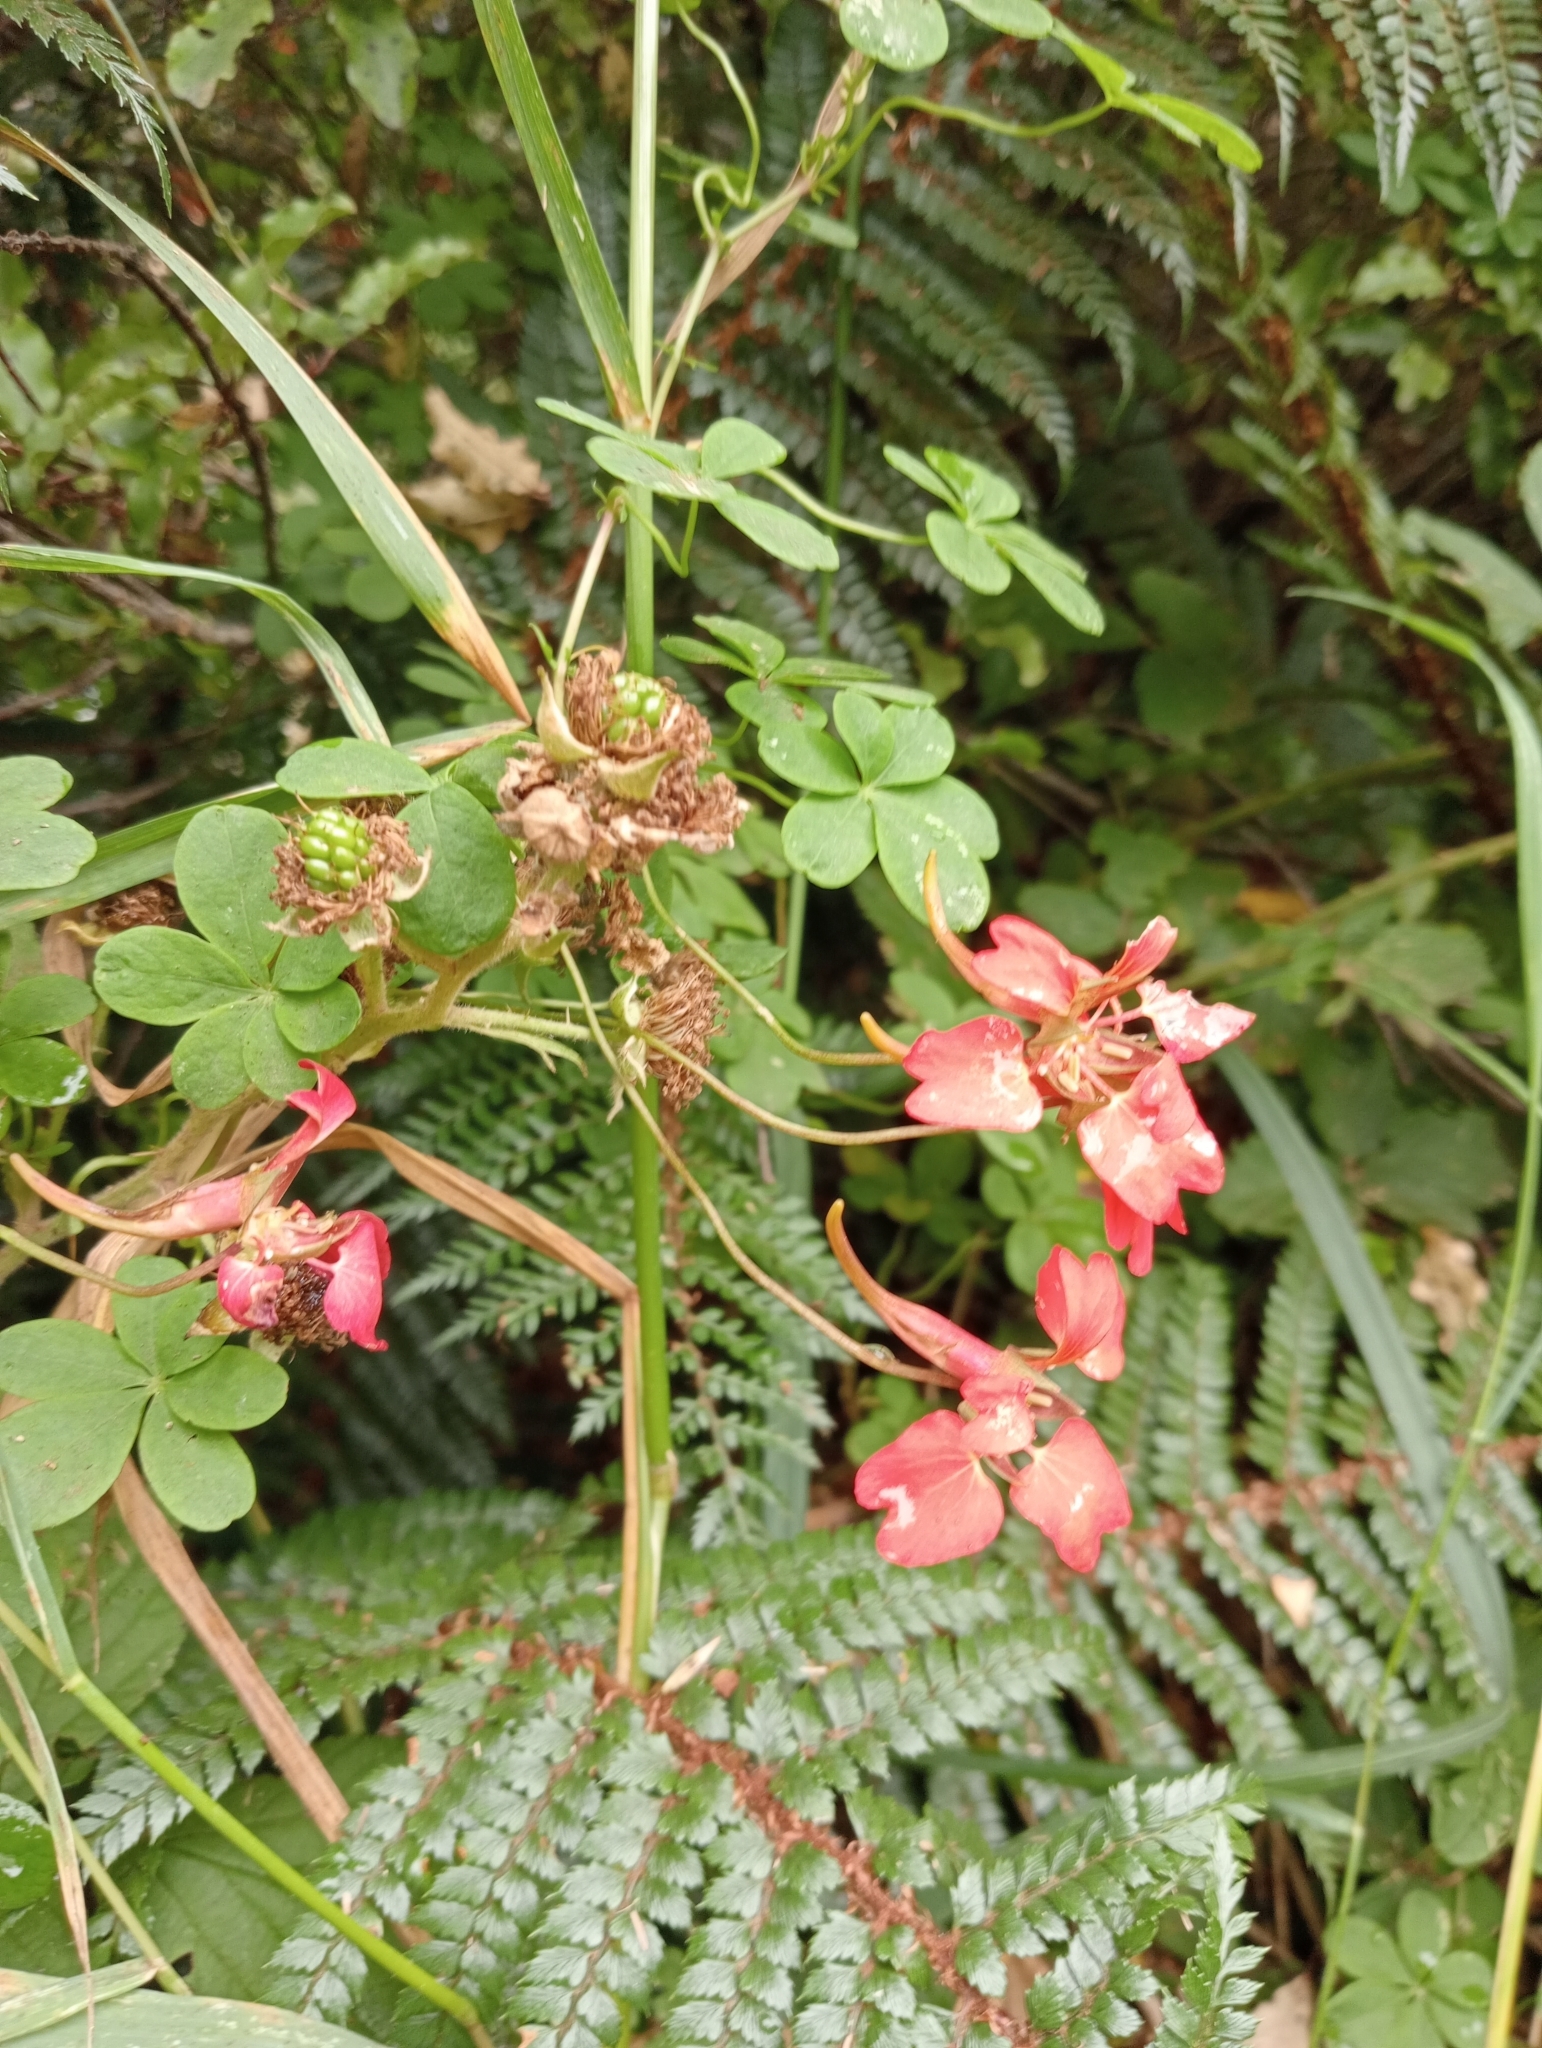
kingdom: Plantae
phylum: Tracheophyta
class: Magnoliopsida
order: Brassicales
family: Tropaeolaceae
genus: Tropaeolum
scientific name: Tropaeolum speciosum
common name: Flame nasturtium
